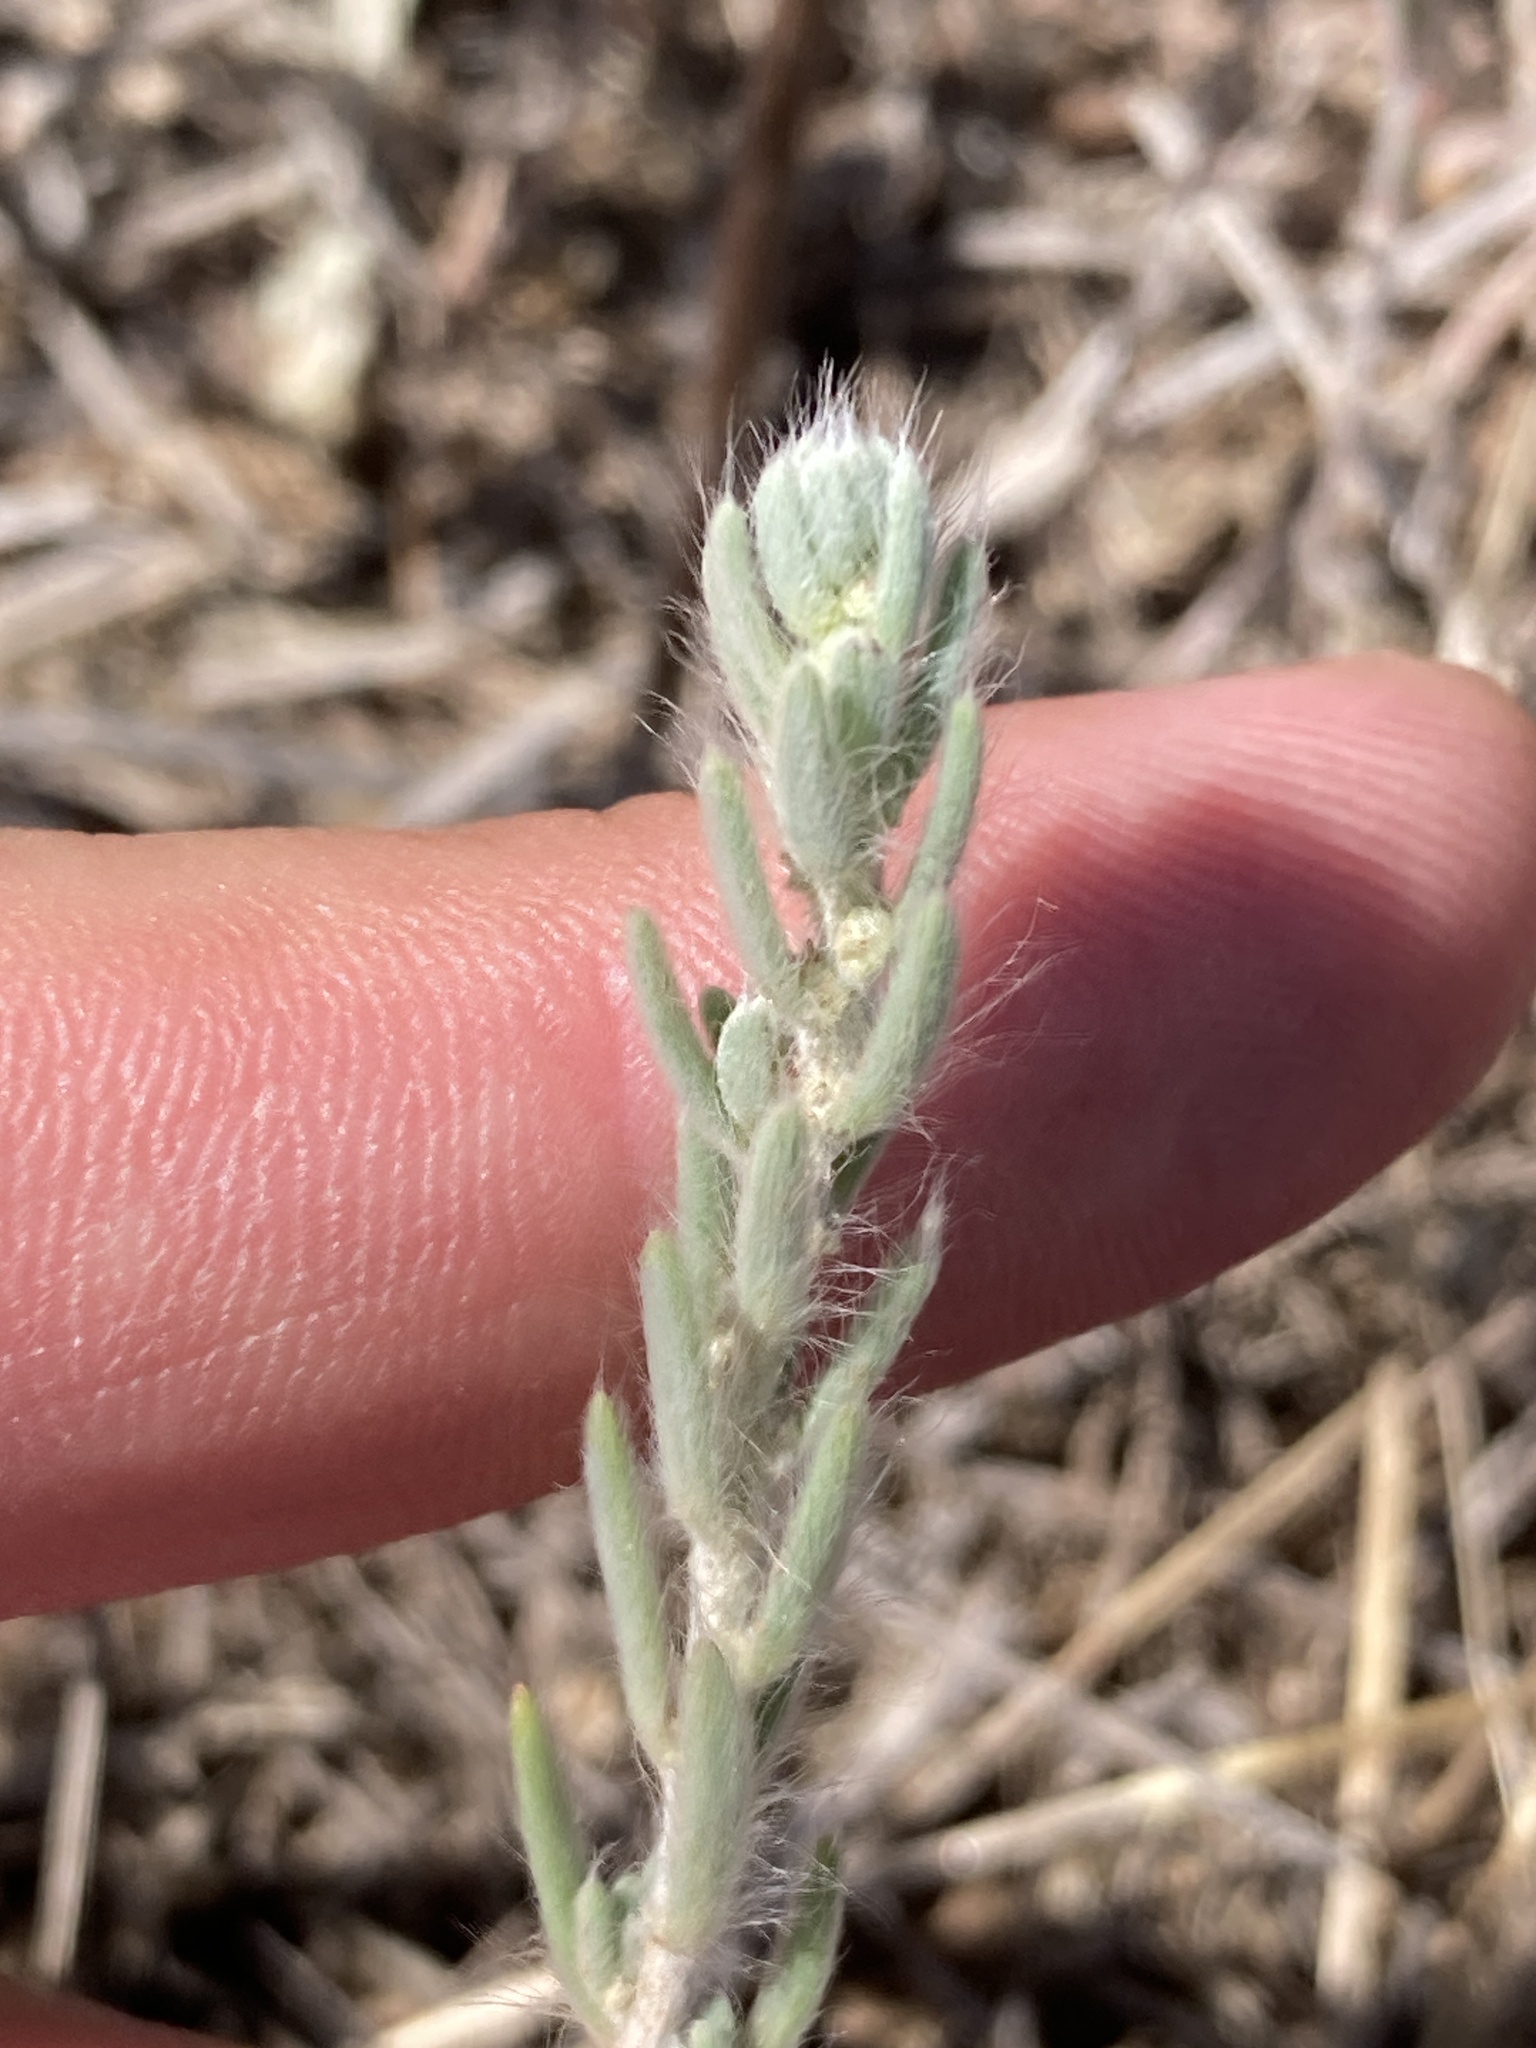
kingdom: Plantae
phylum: Tracheophyta
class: Magnoliopsida
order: Caryophyllales
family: Amaranthaceae
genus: Sedobassia
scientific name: Sedobassia sedoides
